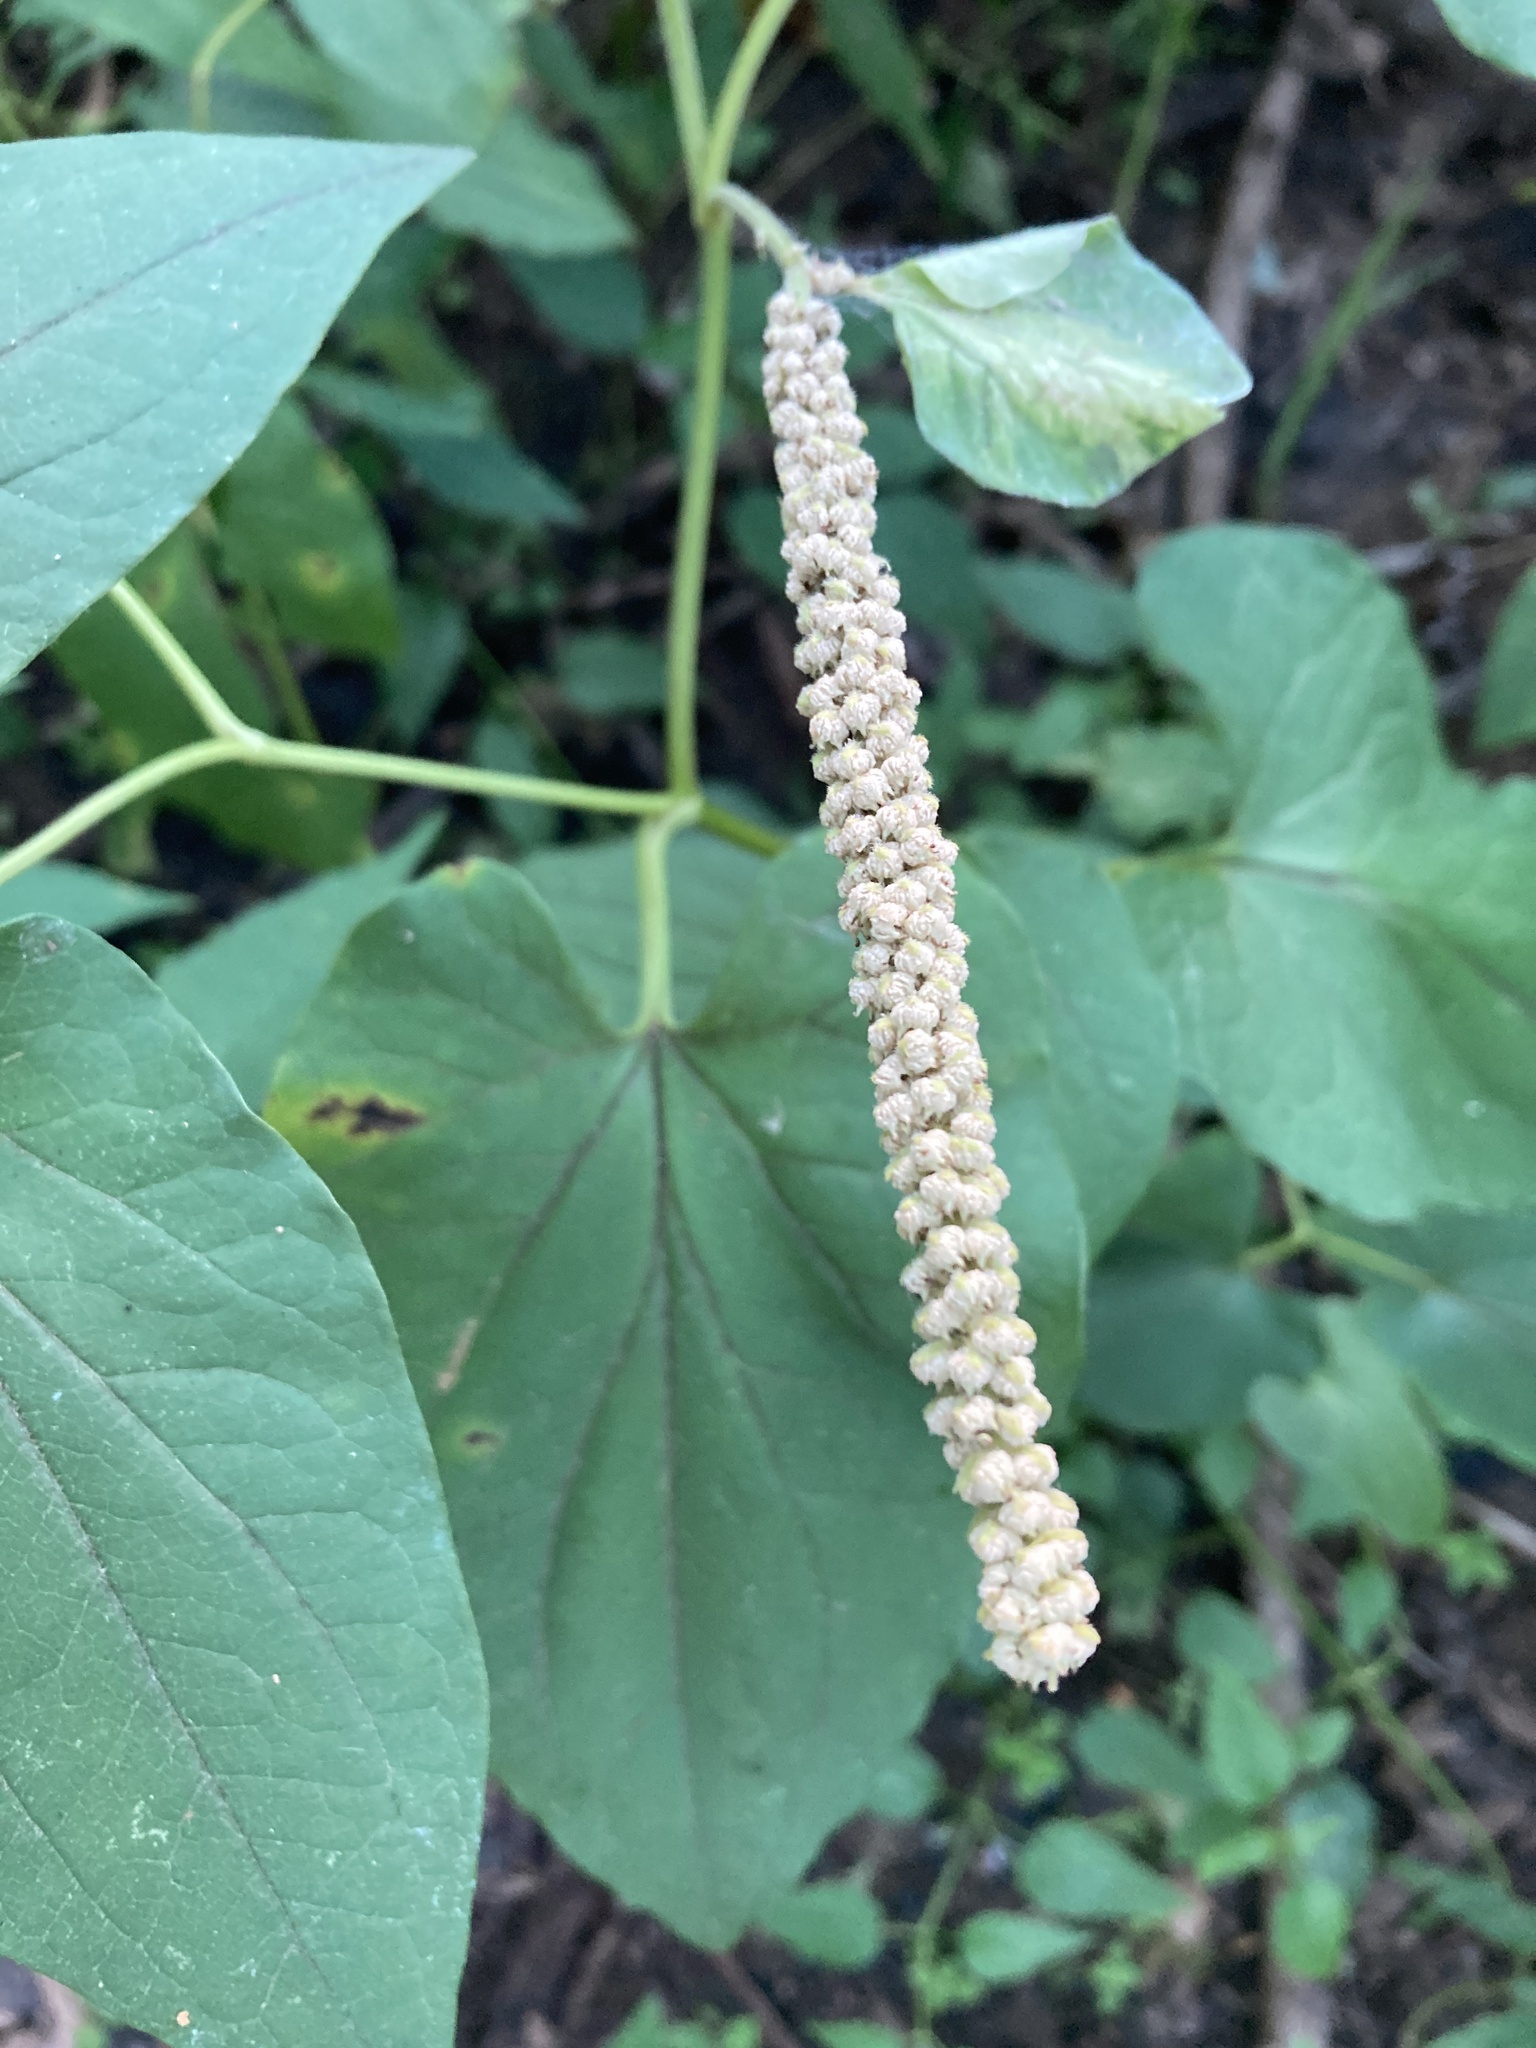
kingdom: Plantae
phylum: Tracheophyta
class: Magnoliopsida
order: Piperales
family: Saururaceae
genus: Saururus
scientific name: Saururus cernuus
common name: Lizard's-tail
